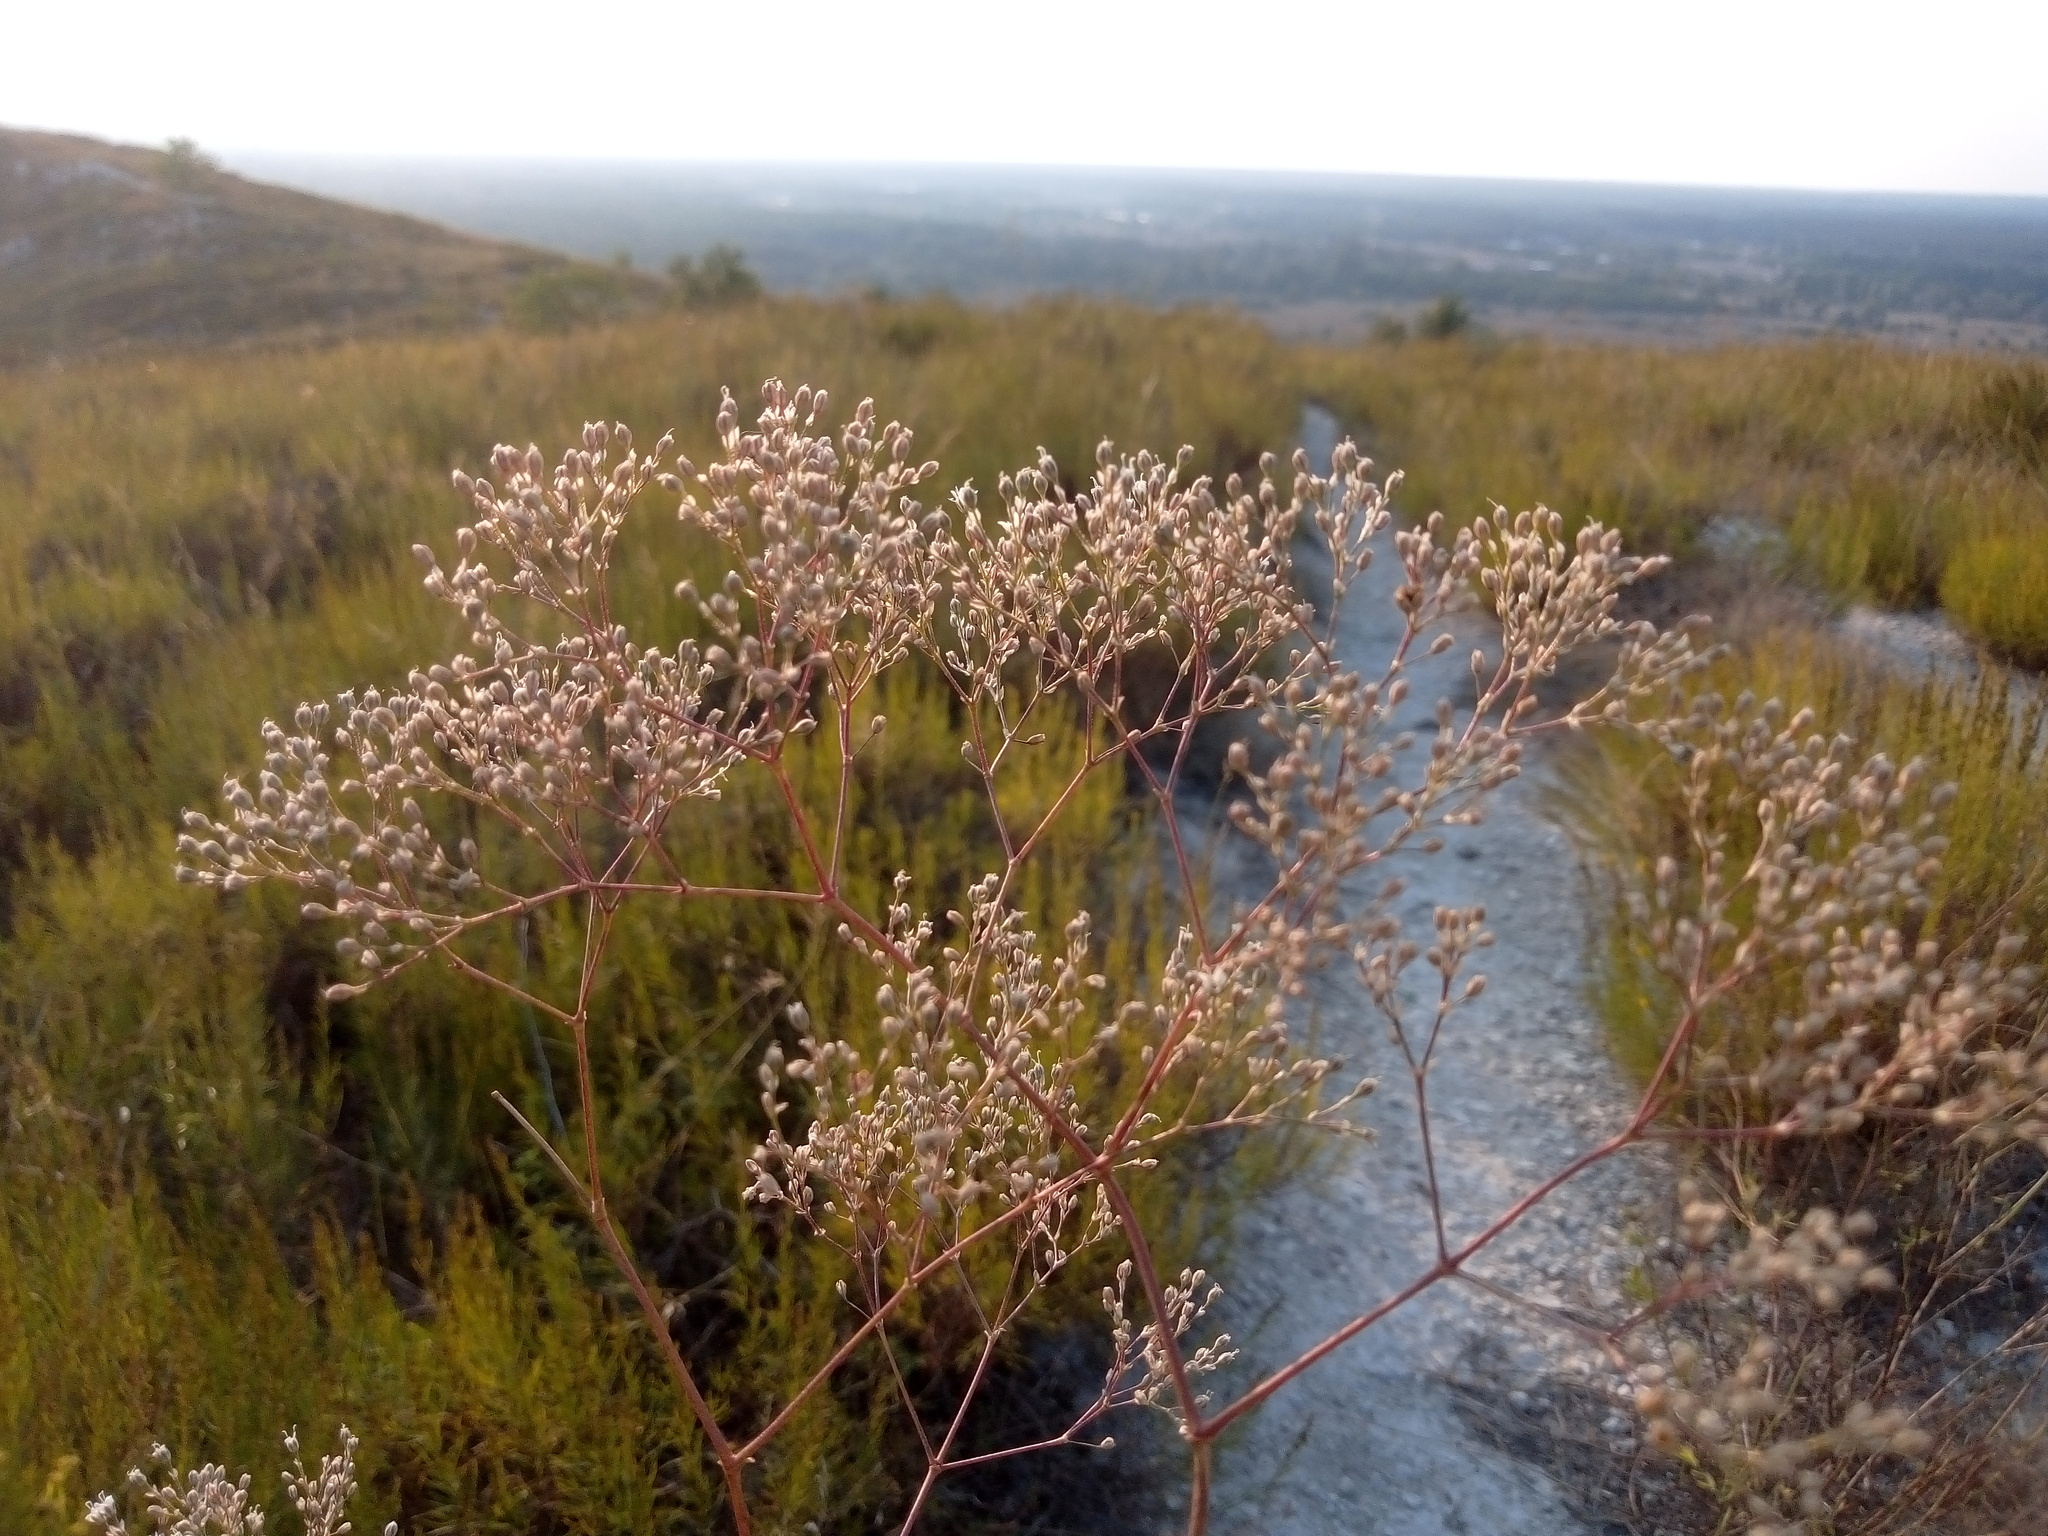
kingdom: Plantae
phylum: Tracheophyta
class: Magnoliopsida
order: Caryophyllales
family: Caryophyllaceae
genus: Gypsophila
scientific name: Gypsophila altissima
